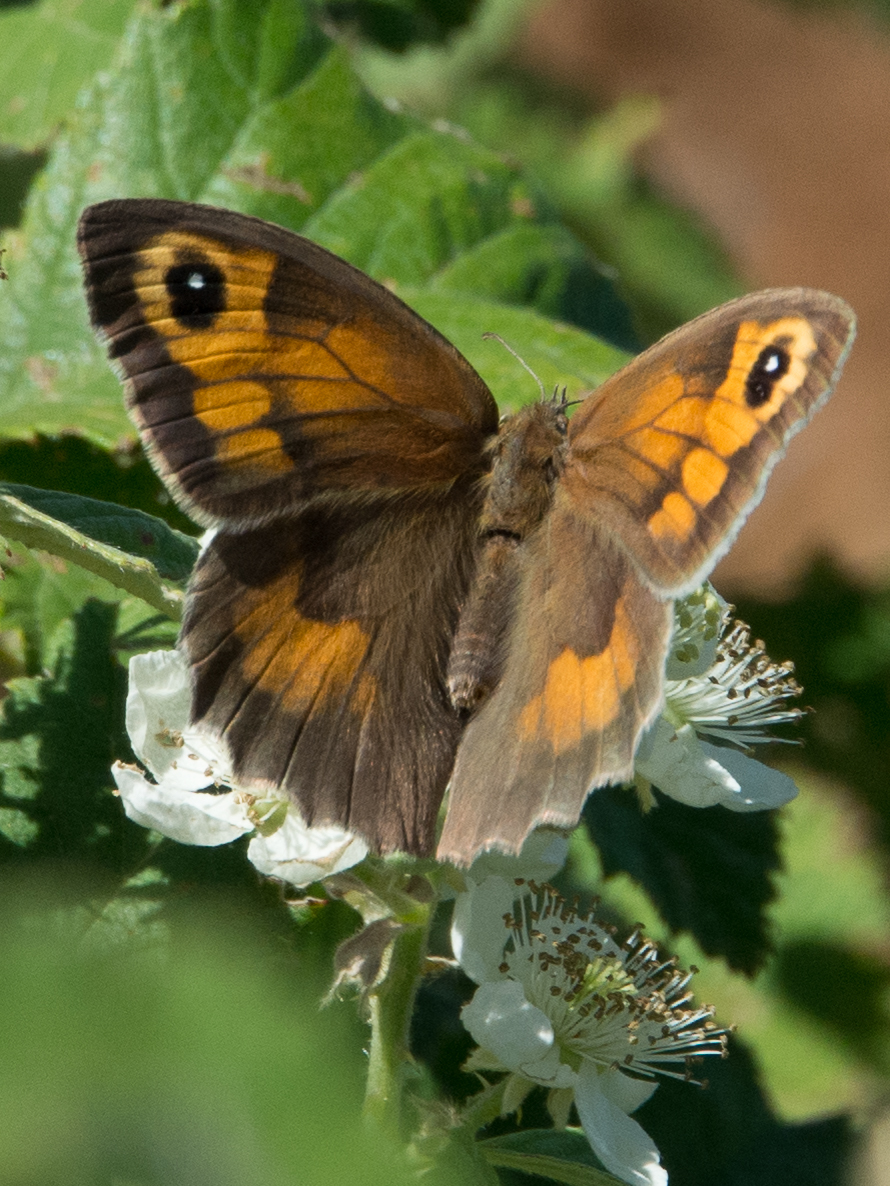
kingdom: Animalia
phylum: Arthropoda
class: Insecta
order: Lepidoptera
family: Nymphalidae
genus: Maniola
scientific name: Maniola jurtina
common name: Meadow brown
